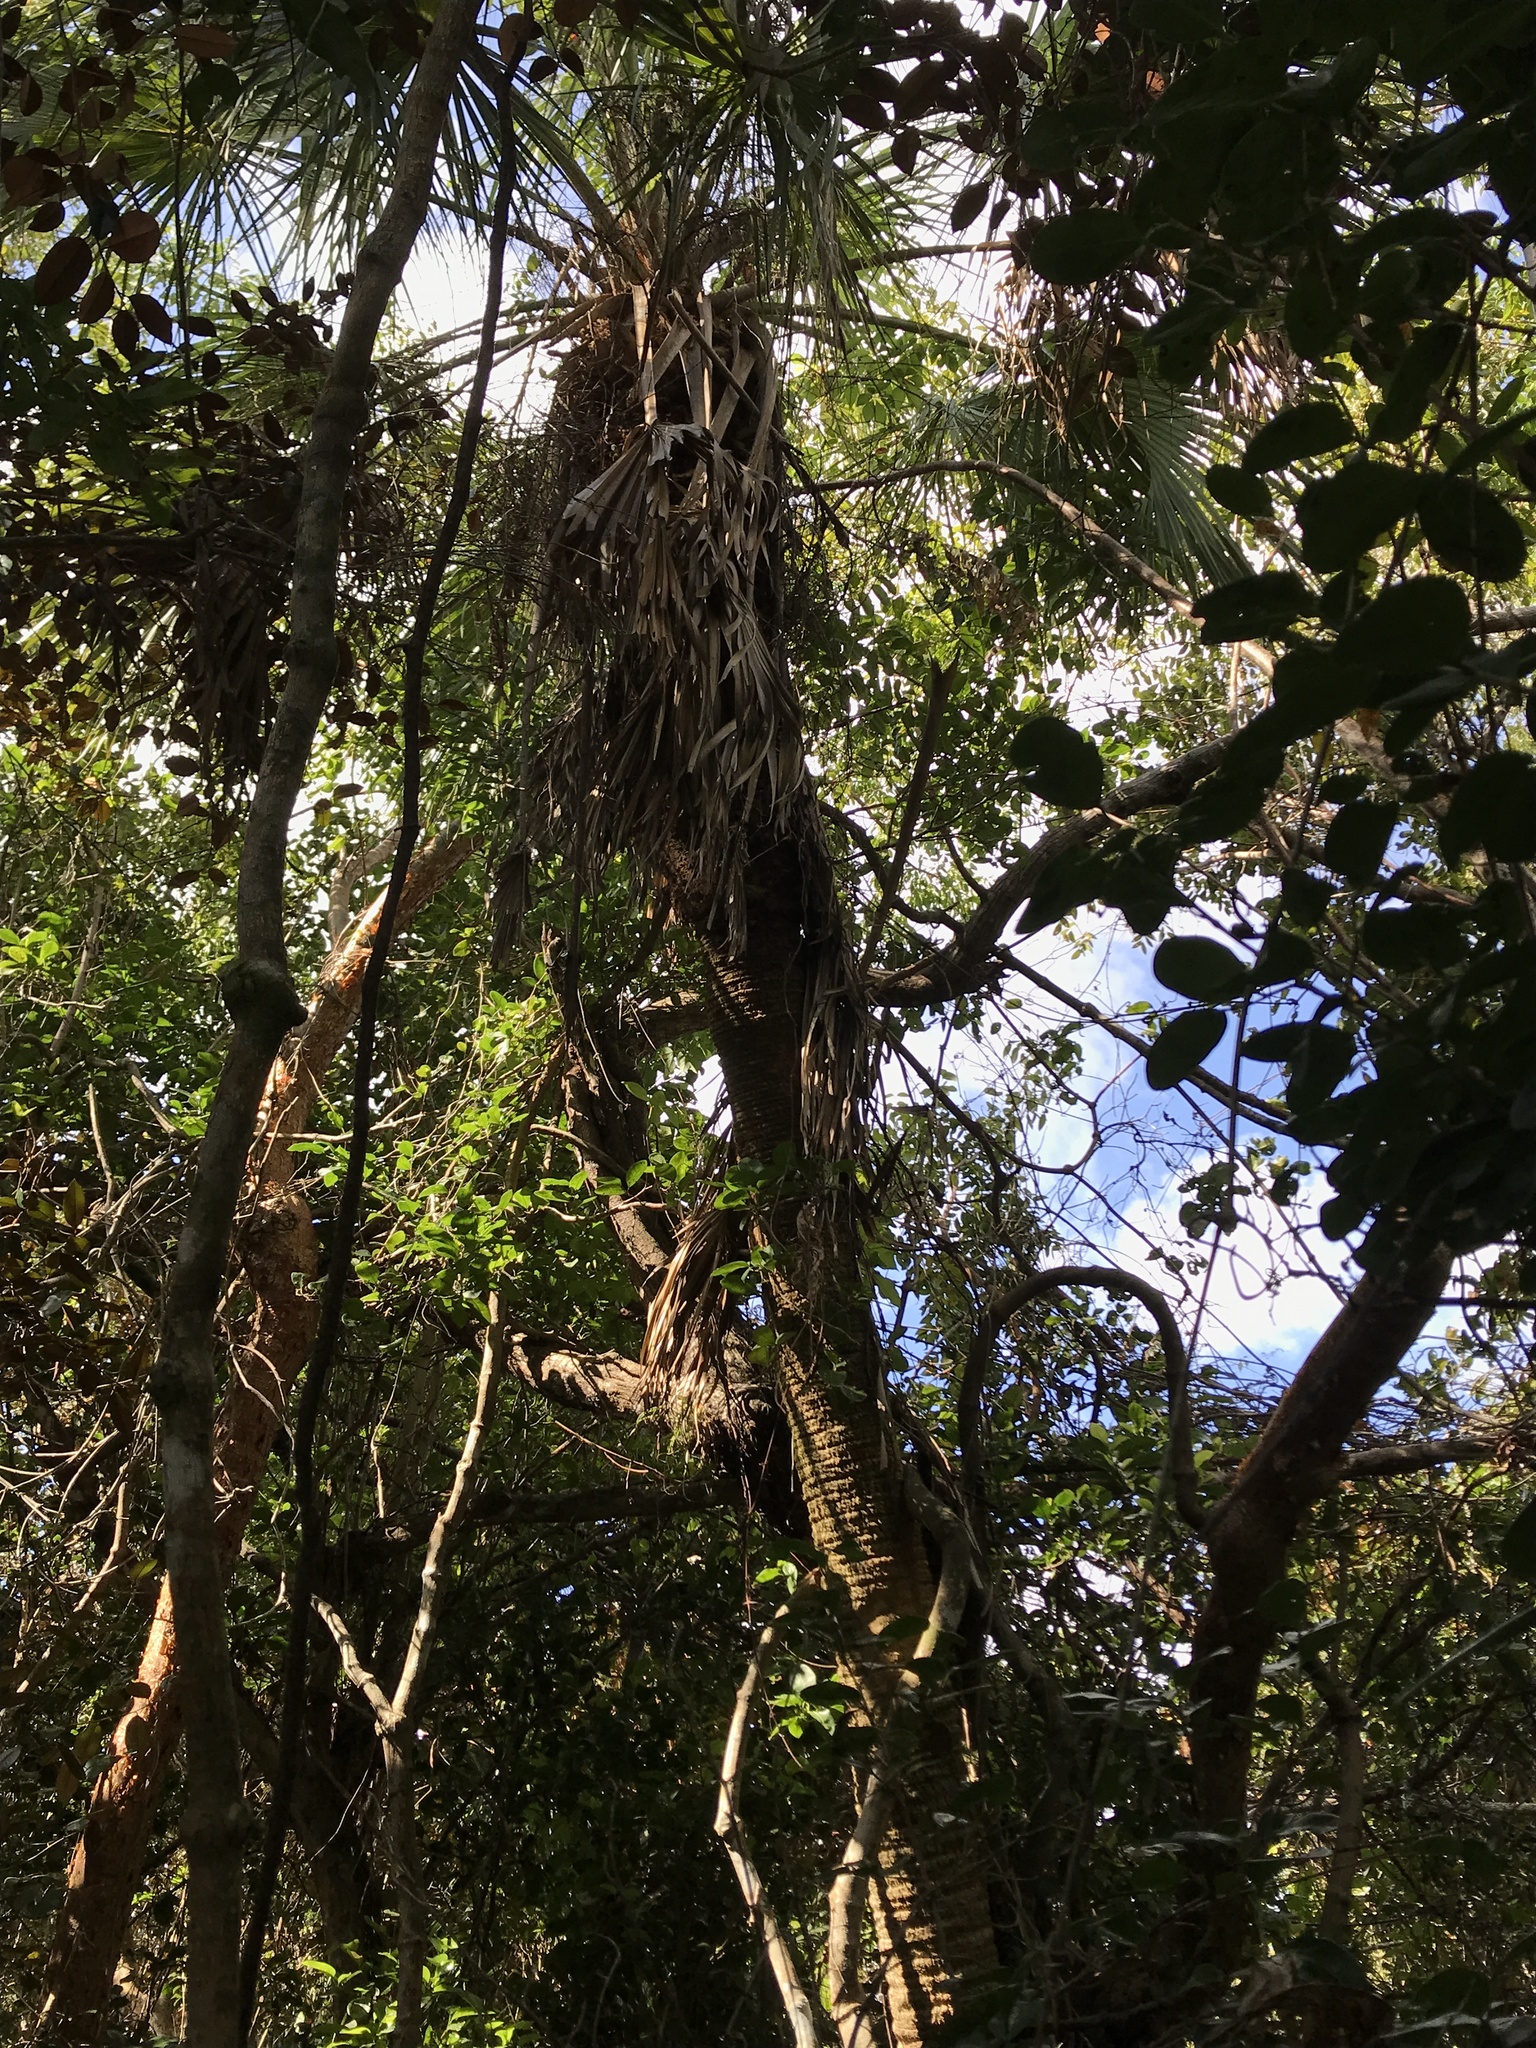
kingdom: Plantae
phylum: Tracheophyta
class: Liliopsida
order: Arecales
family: Arecaceae
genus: Sabal
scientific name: Sabal palmetto
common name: Blue palmetto
